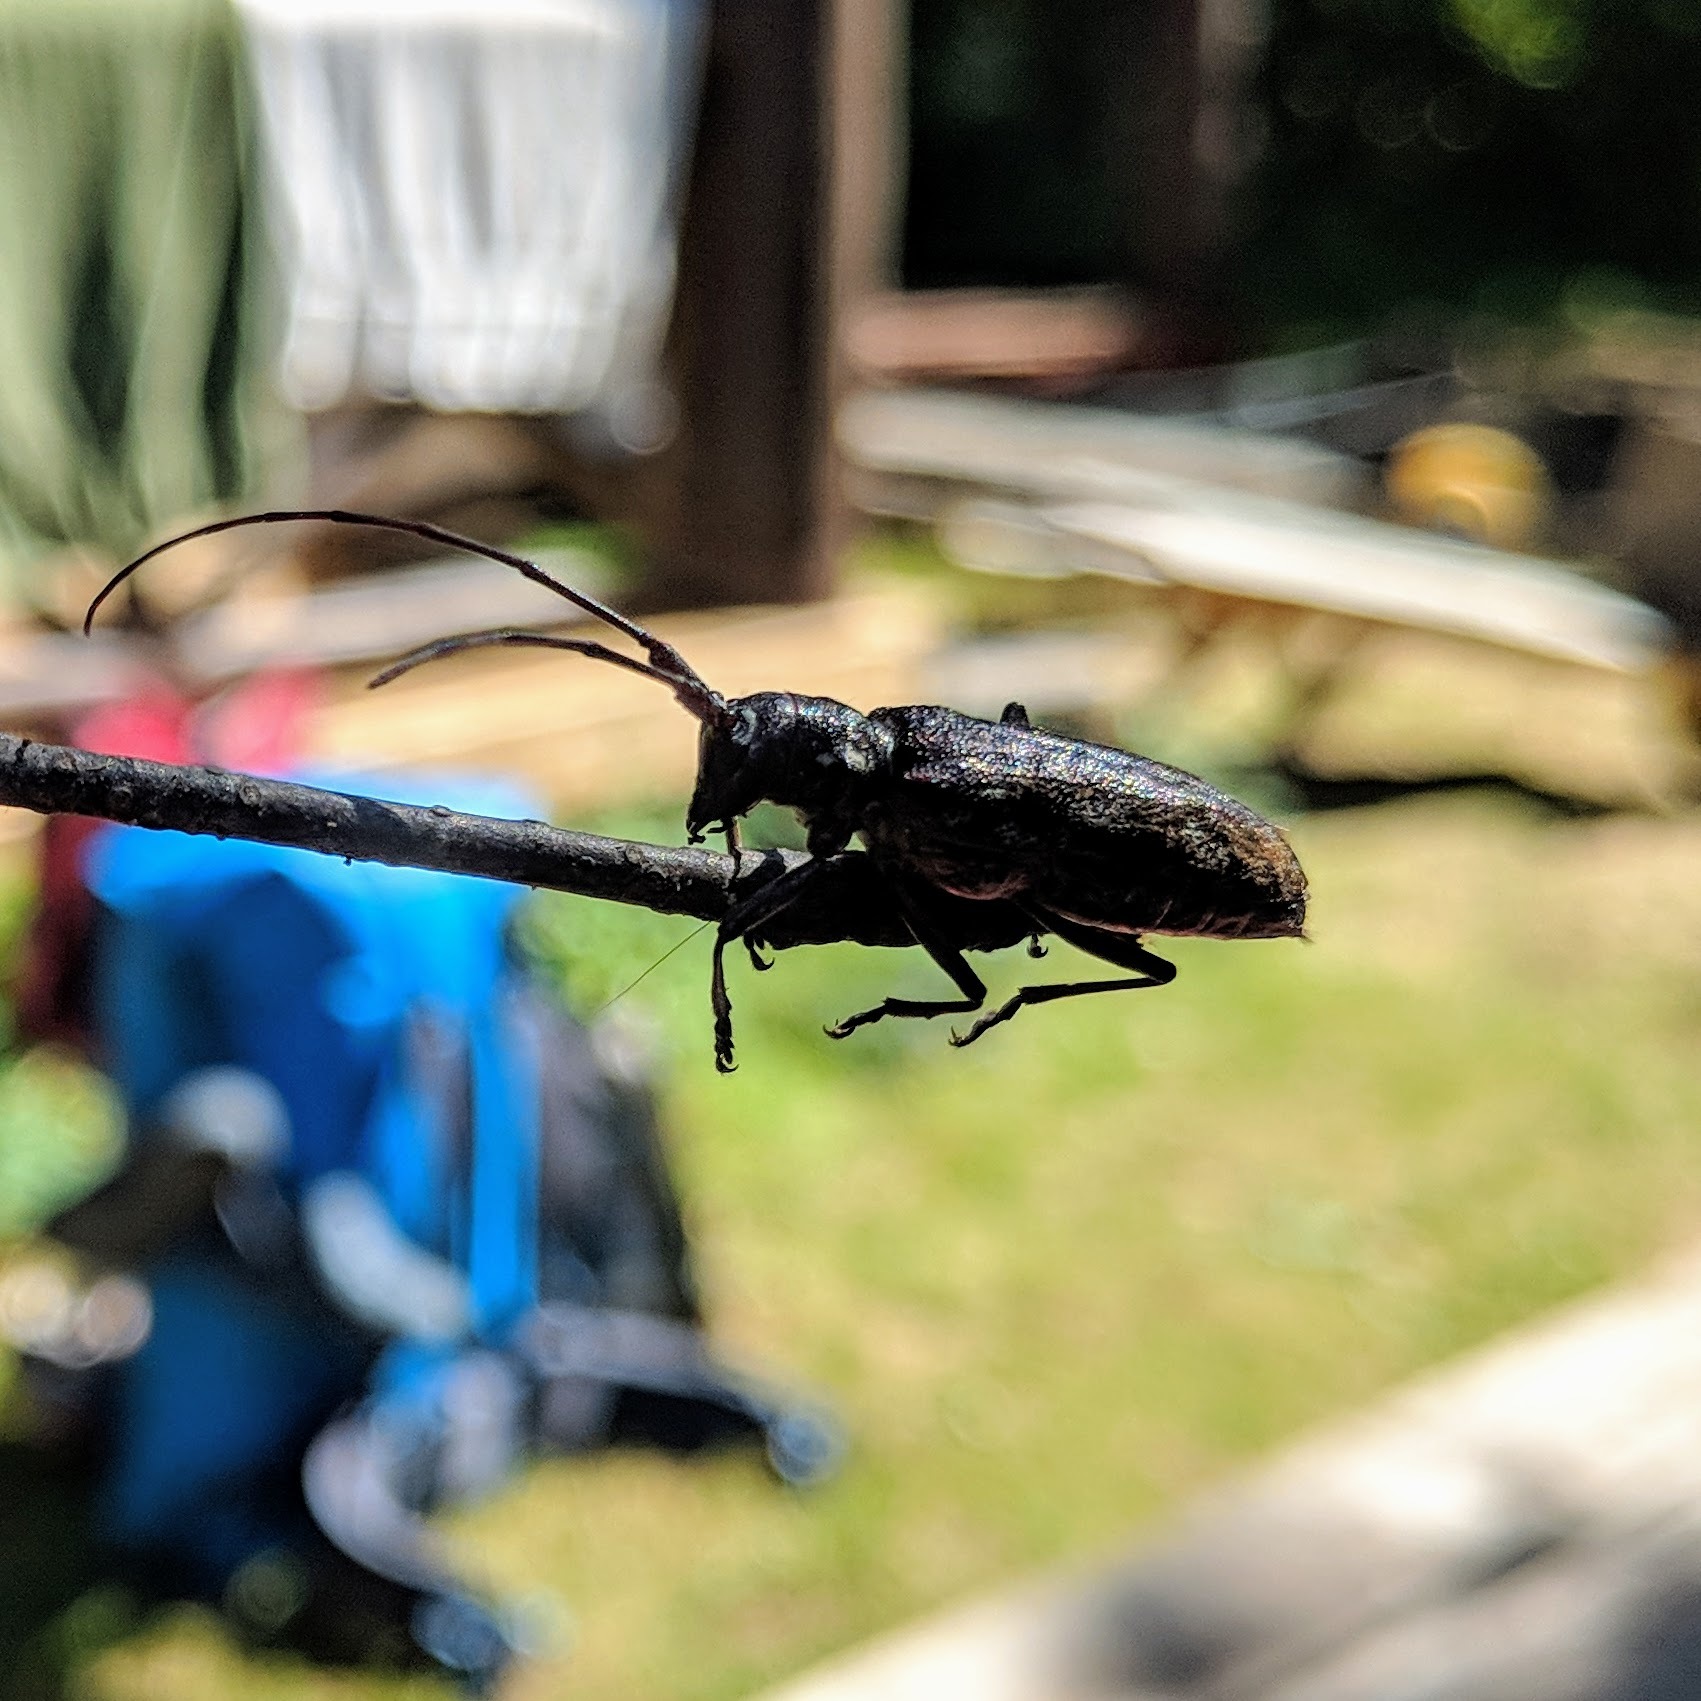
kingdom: Animalia
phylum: Arthropoda
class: Insecta
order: Coleoptera
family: Cerambycidae
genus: Monochamus
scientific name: Monochamus scutellatus
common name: White-spotted sawyer beetle
